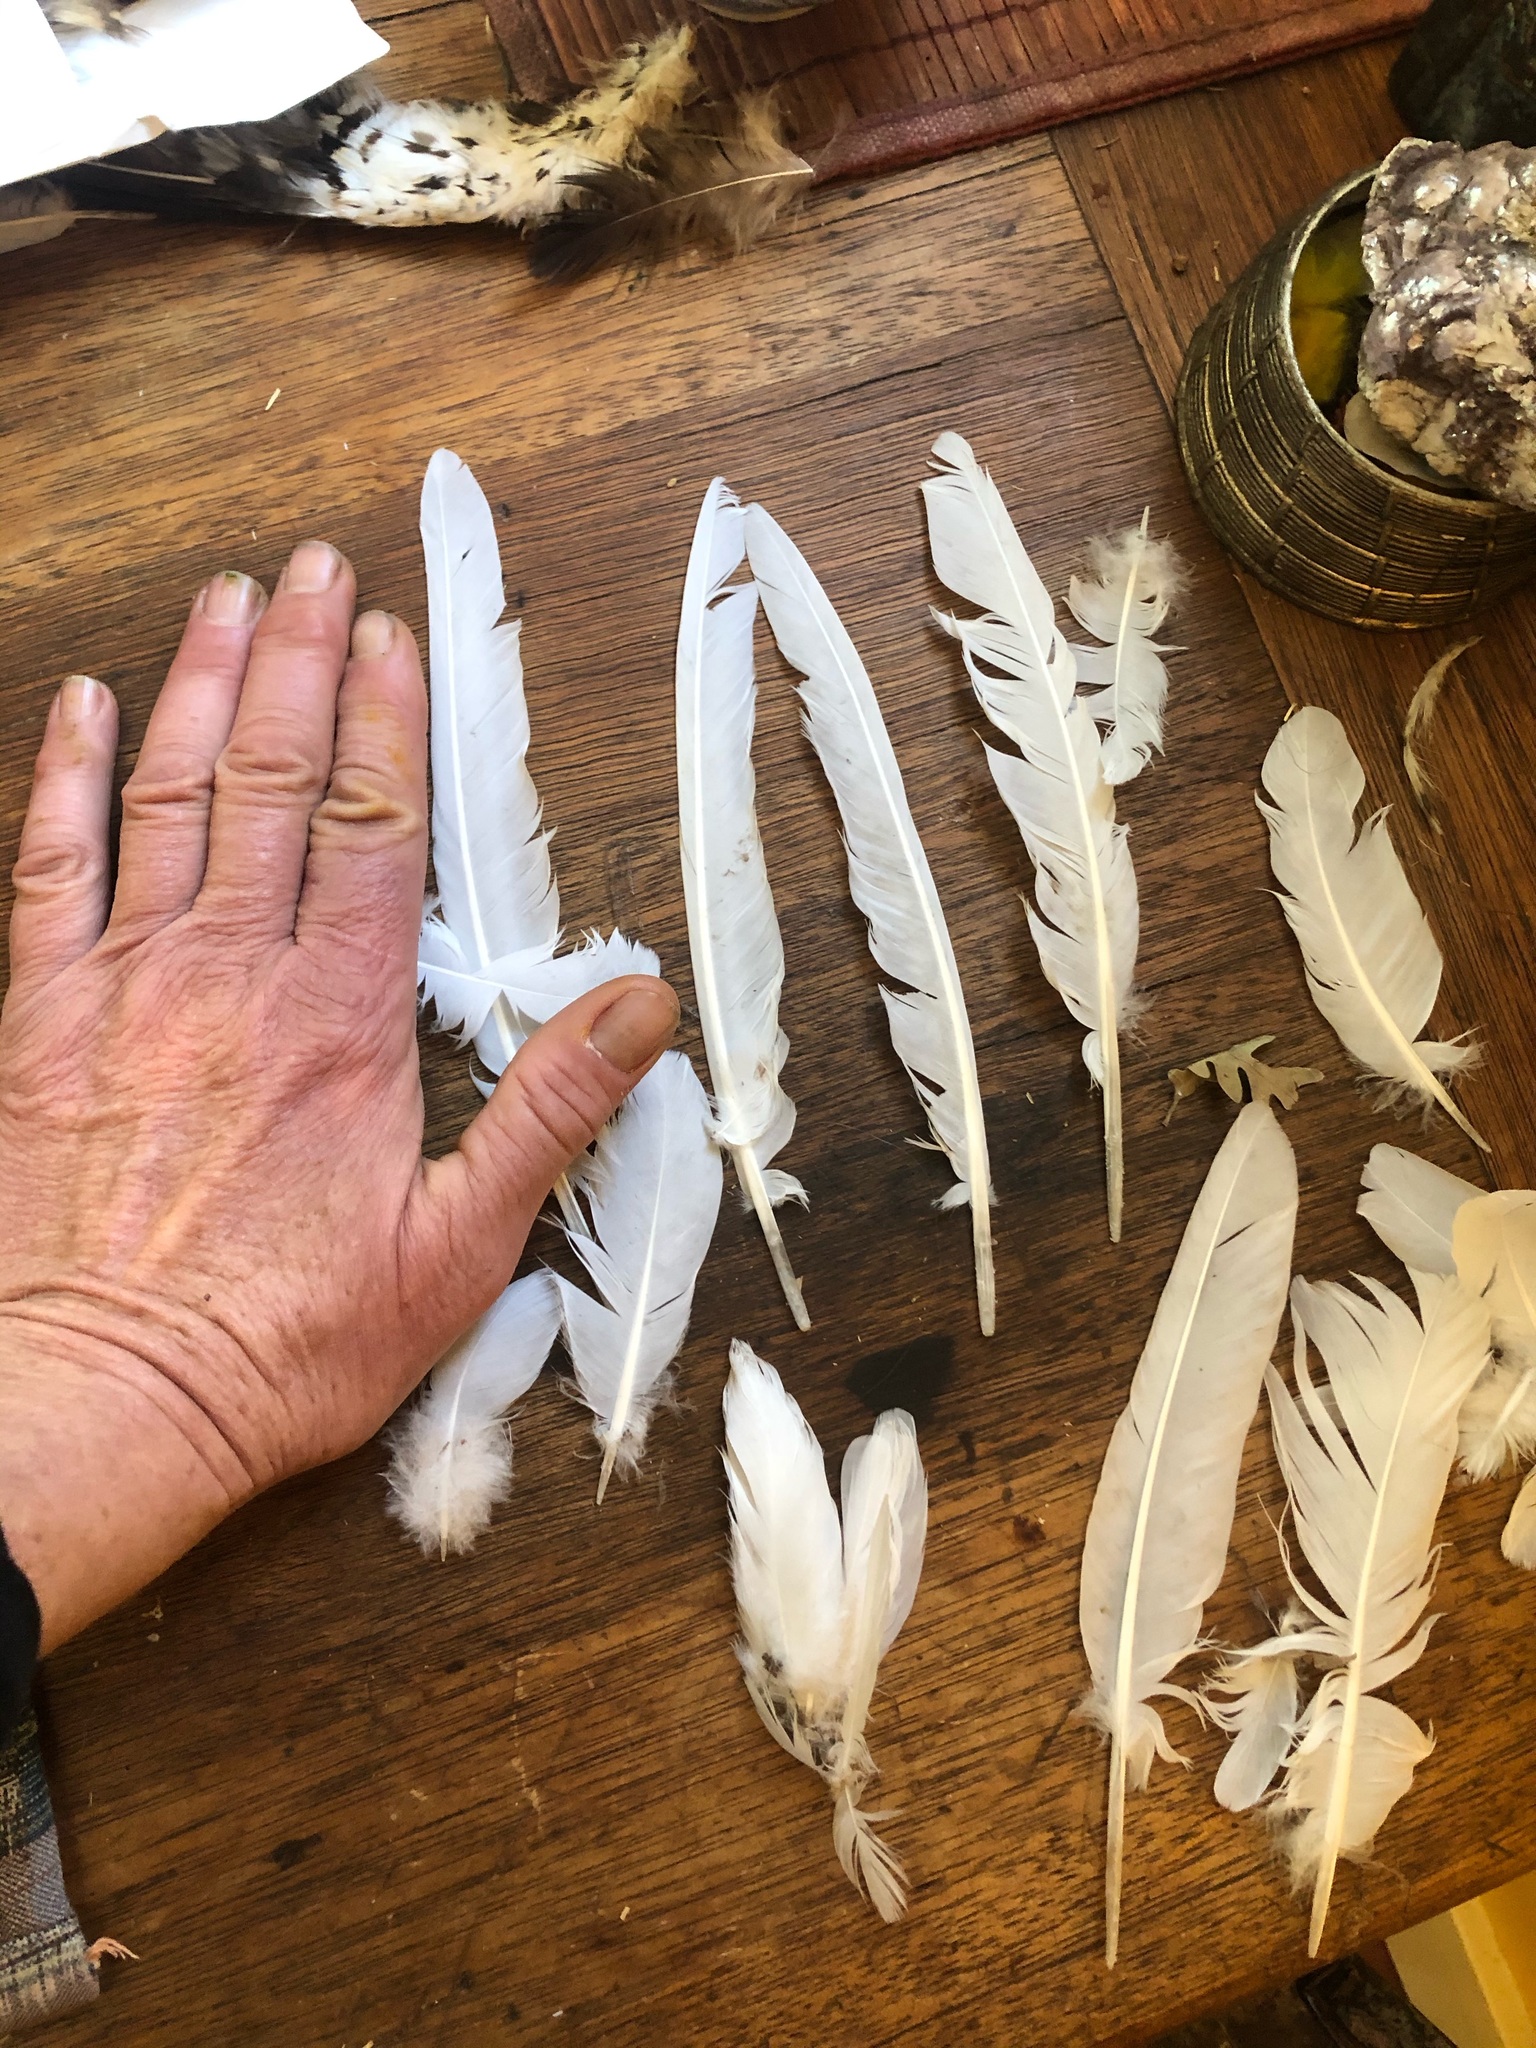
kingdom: Animalia
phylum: Chordata
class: Aves
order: Columbiformes
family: Columbidae
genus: Columba
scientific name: Columba livia
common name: Rock pigeon
